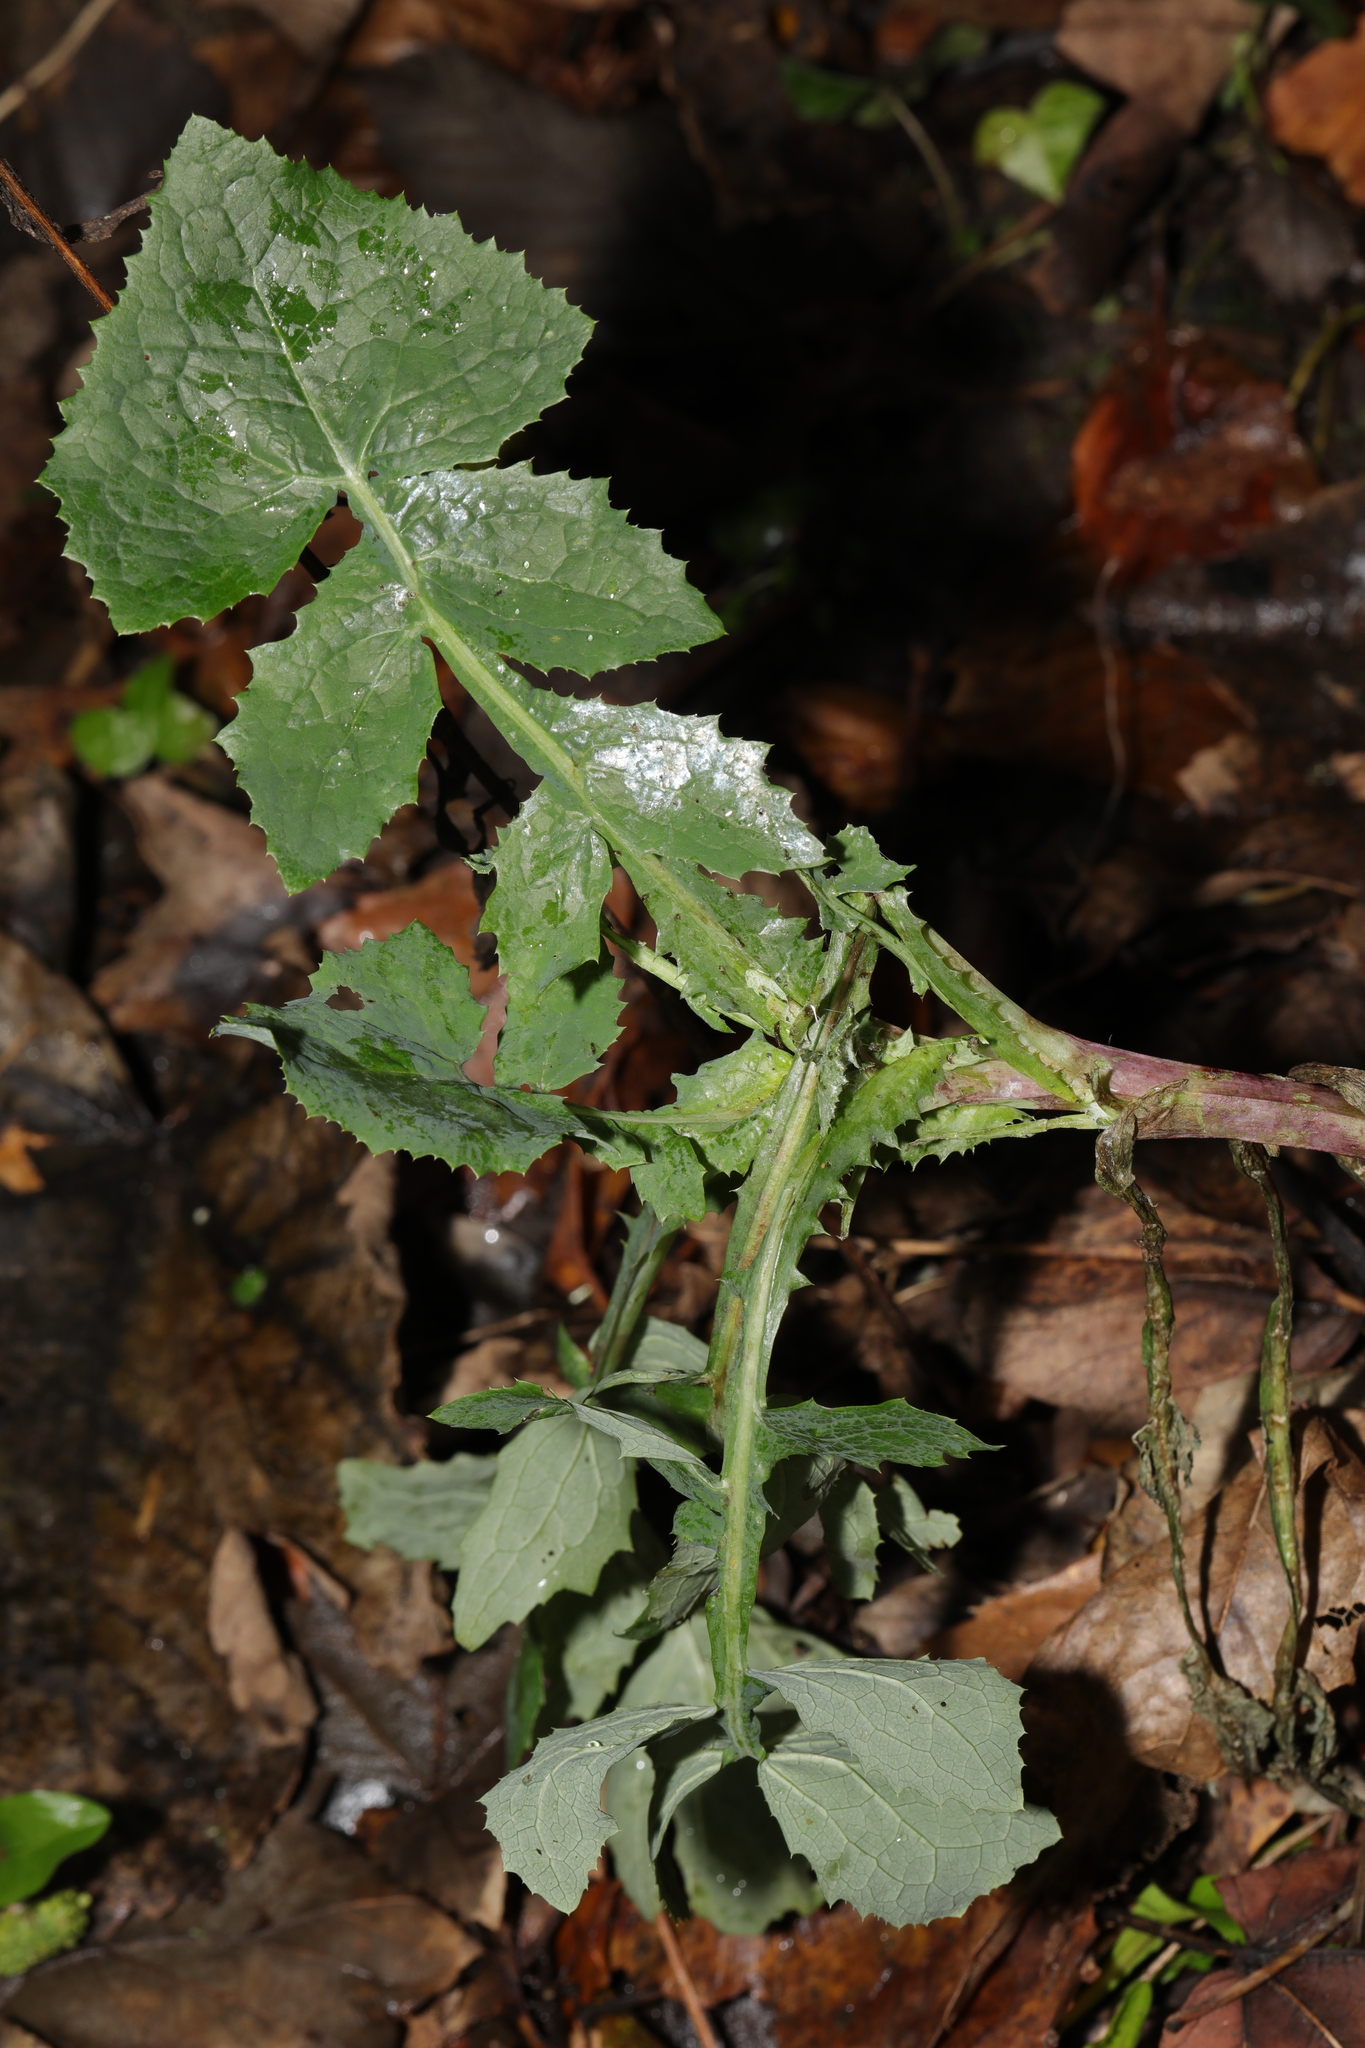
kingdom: Plantae
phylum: Tracheophyta
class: Magnoliopsida
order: Asterales
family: Asteraceae
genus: Sonchus
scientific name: Sonchus oleraceus
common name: Common sowthistle
